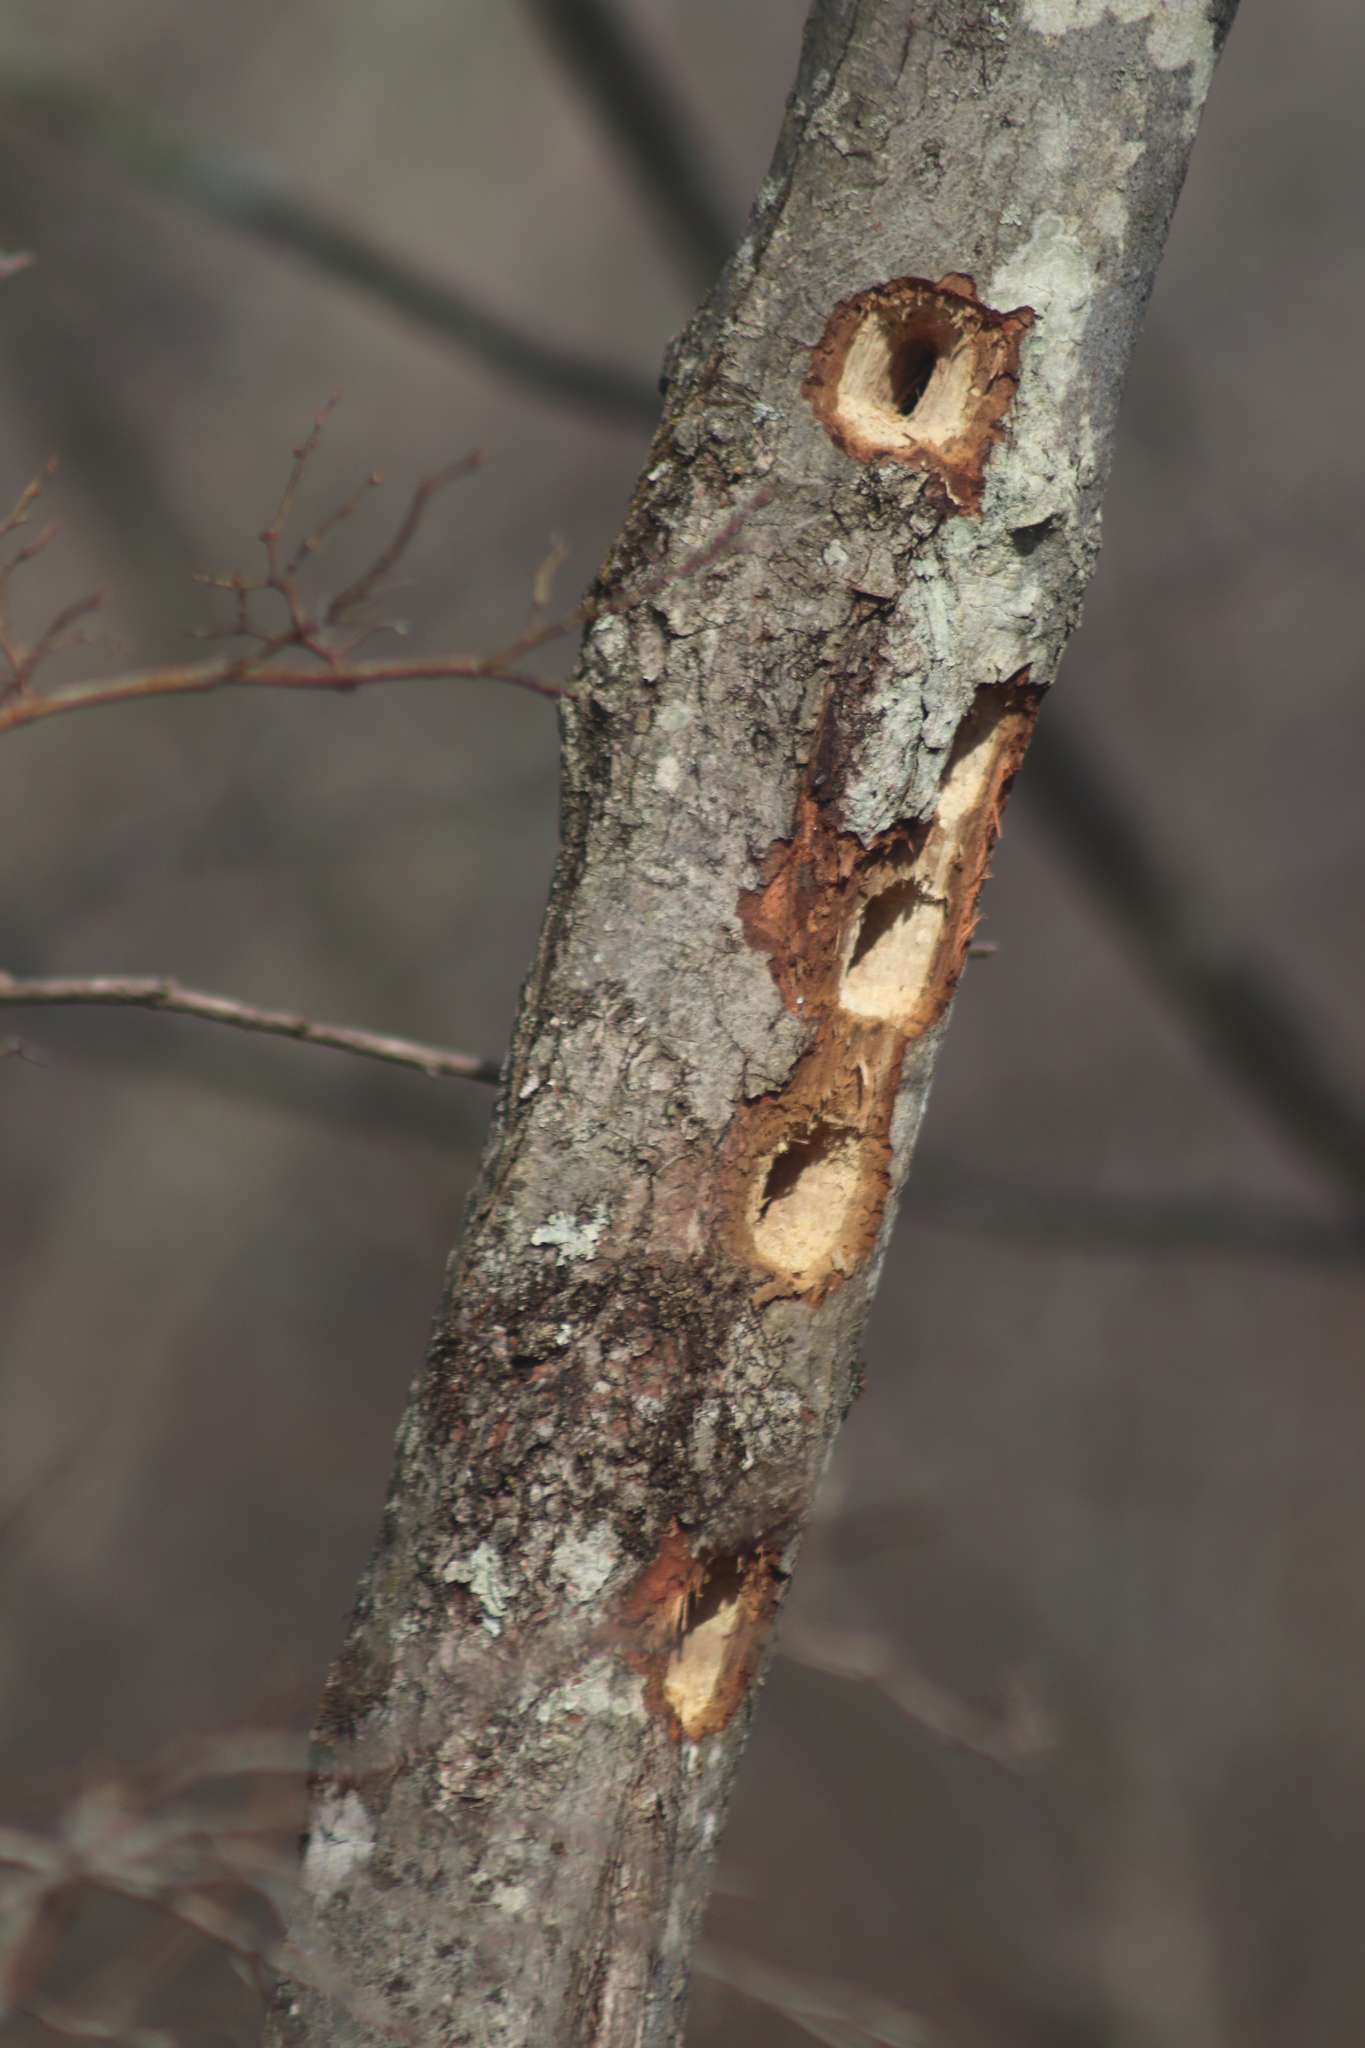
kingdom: Animalia
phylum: Chordata
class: Aves
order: Piciformes
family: Picidae
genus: Dryocopus
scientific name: Dryocopus pileatus
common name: Pileated woodpecker
